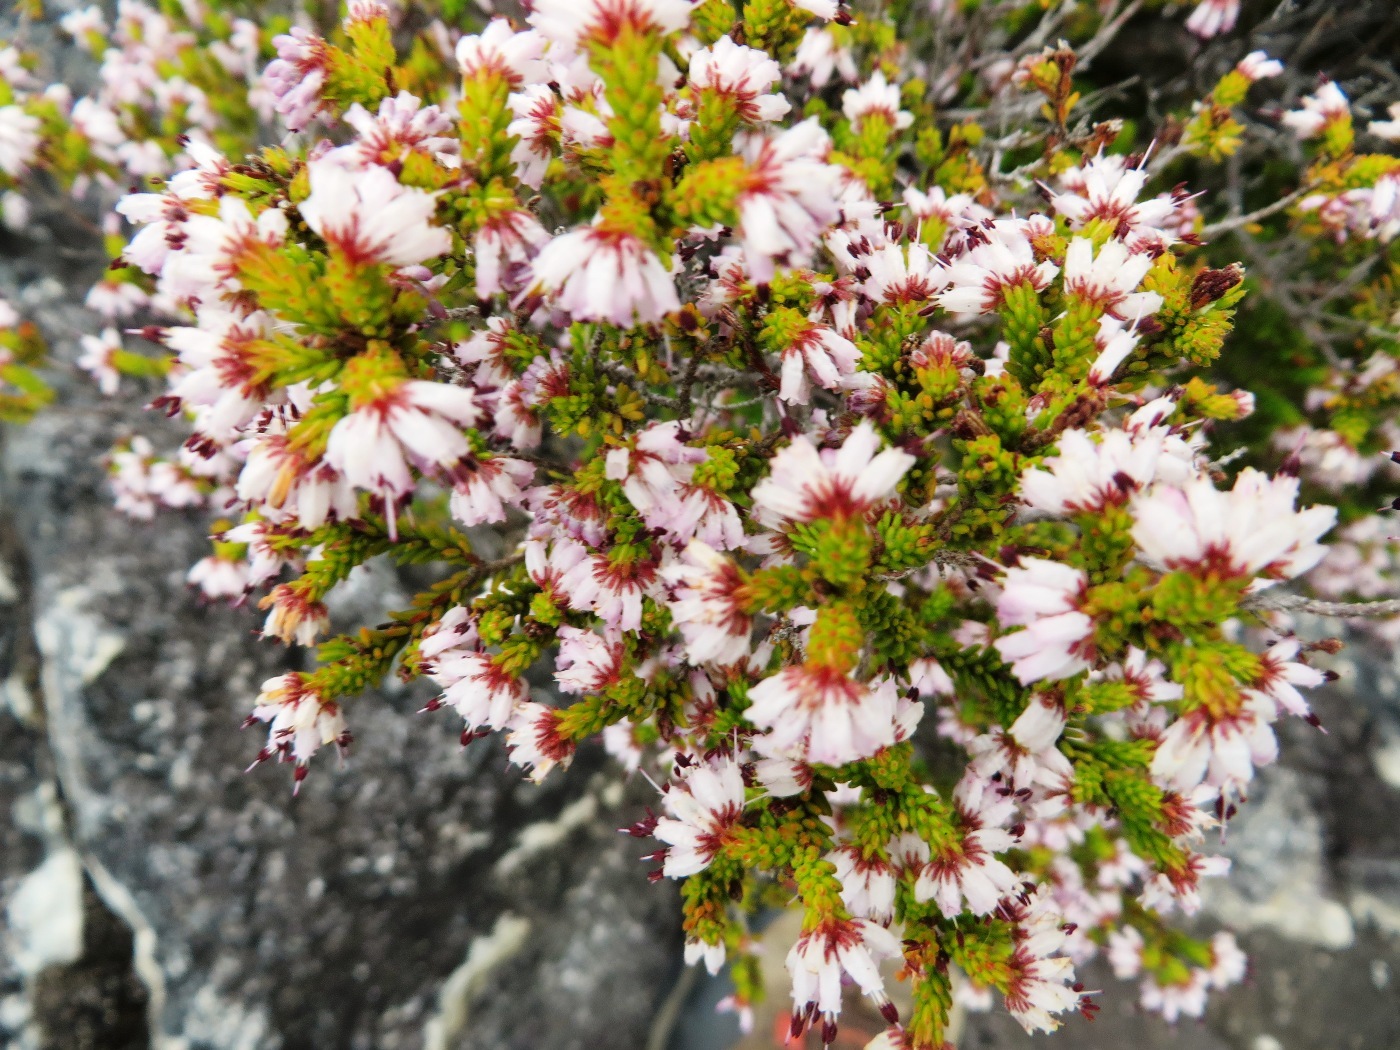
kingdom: Plantae
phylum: Tracheophyta
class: Magnoliopsida
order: Ericales
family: Ericaceae
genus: Erica
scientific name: Erica ericoides
